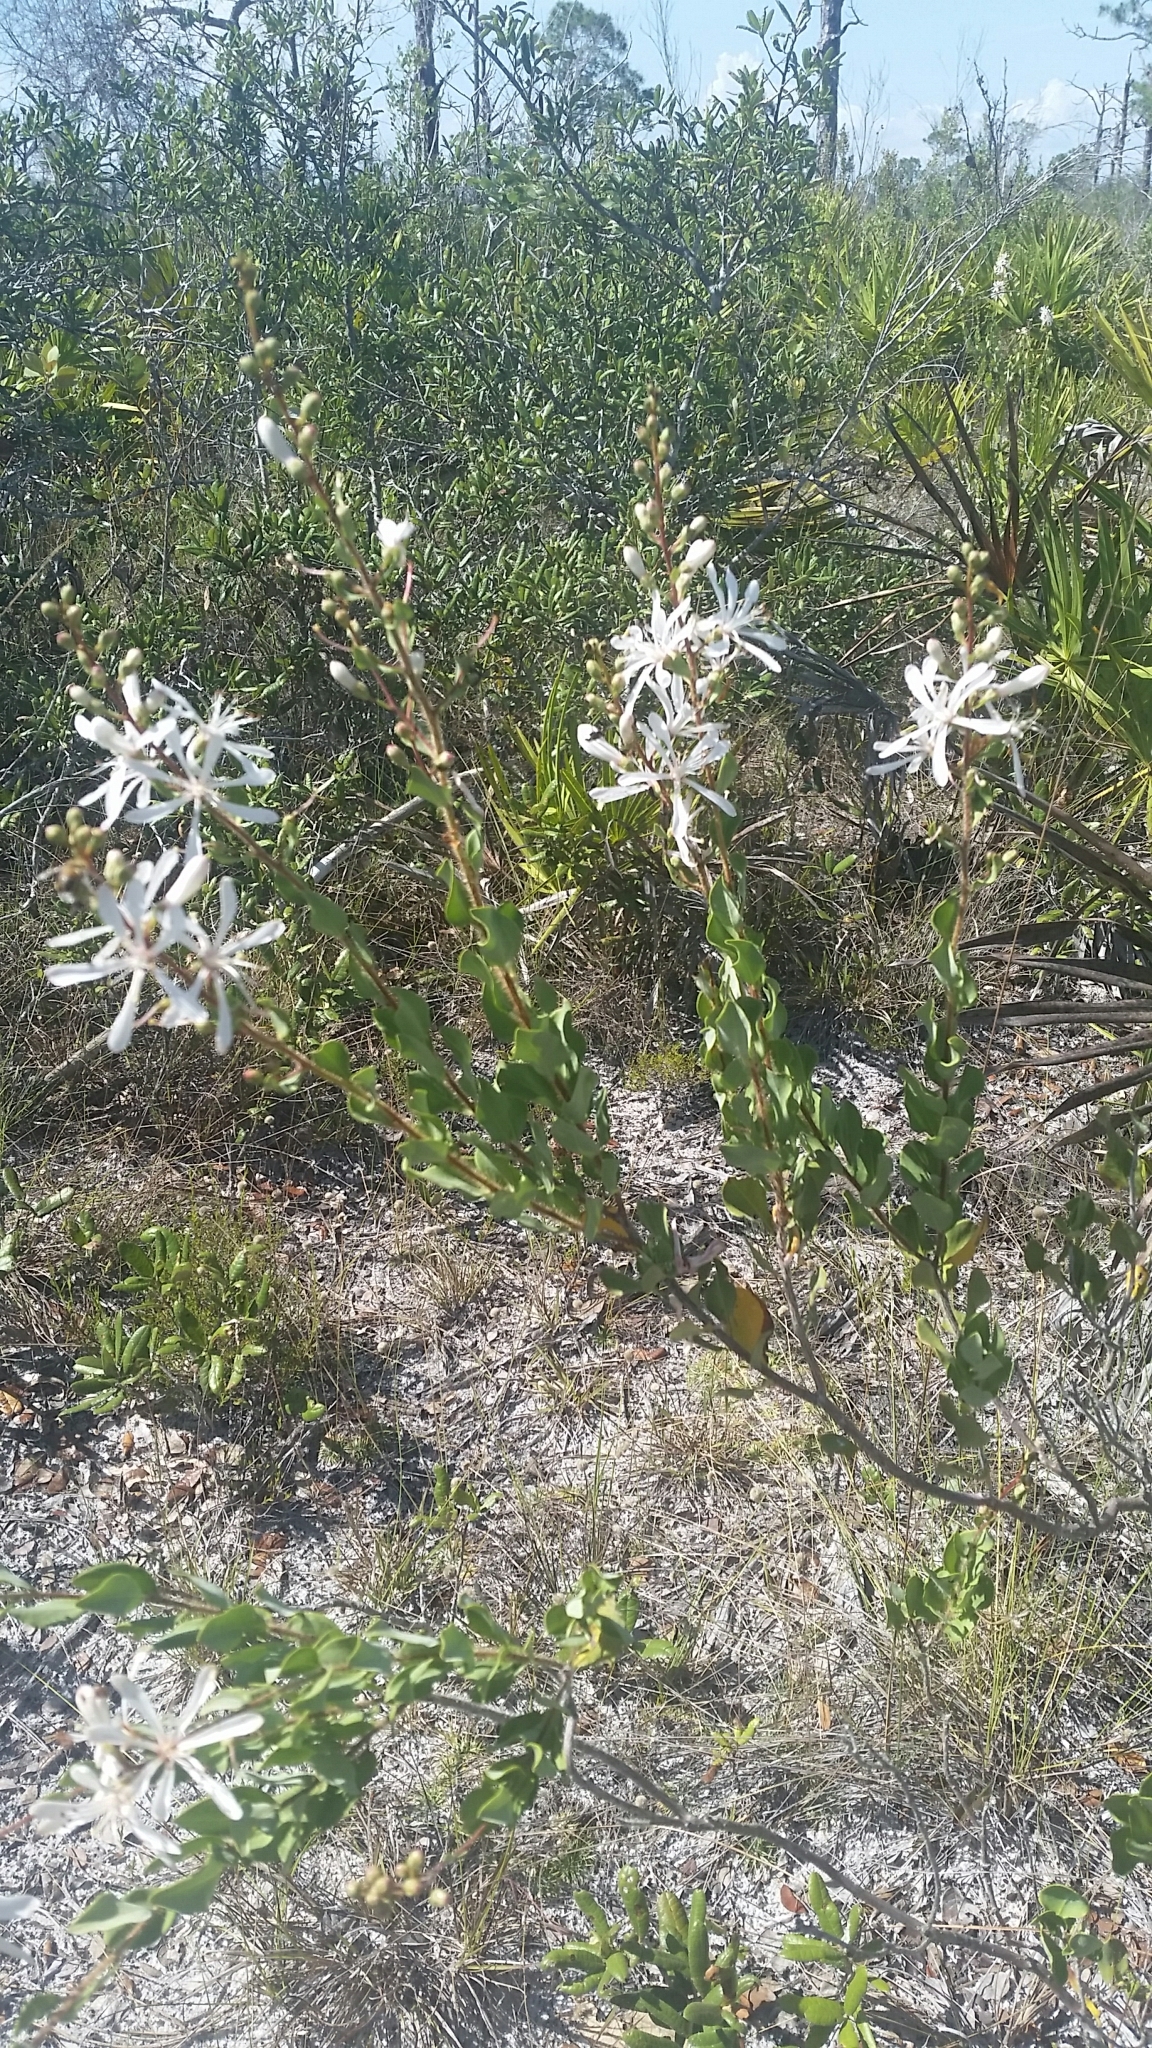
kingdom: Plantae
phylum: Tracheophyta
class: Magnoliopsida
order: Ericales
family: Ericaceae
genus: Bejaria
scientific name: Bejaria racemosa
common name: Tarflower
